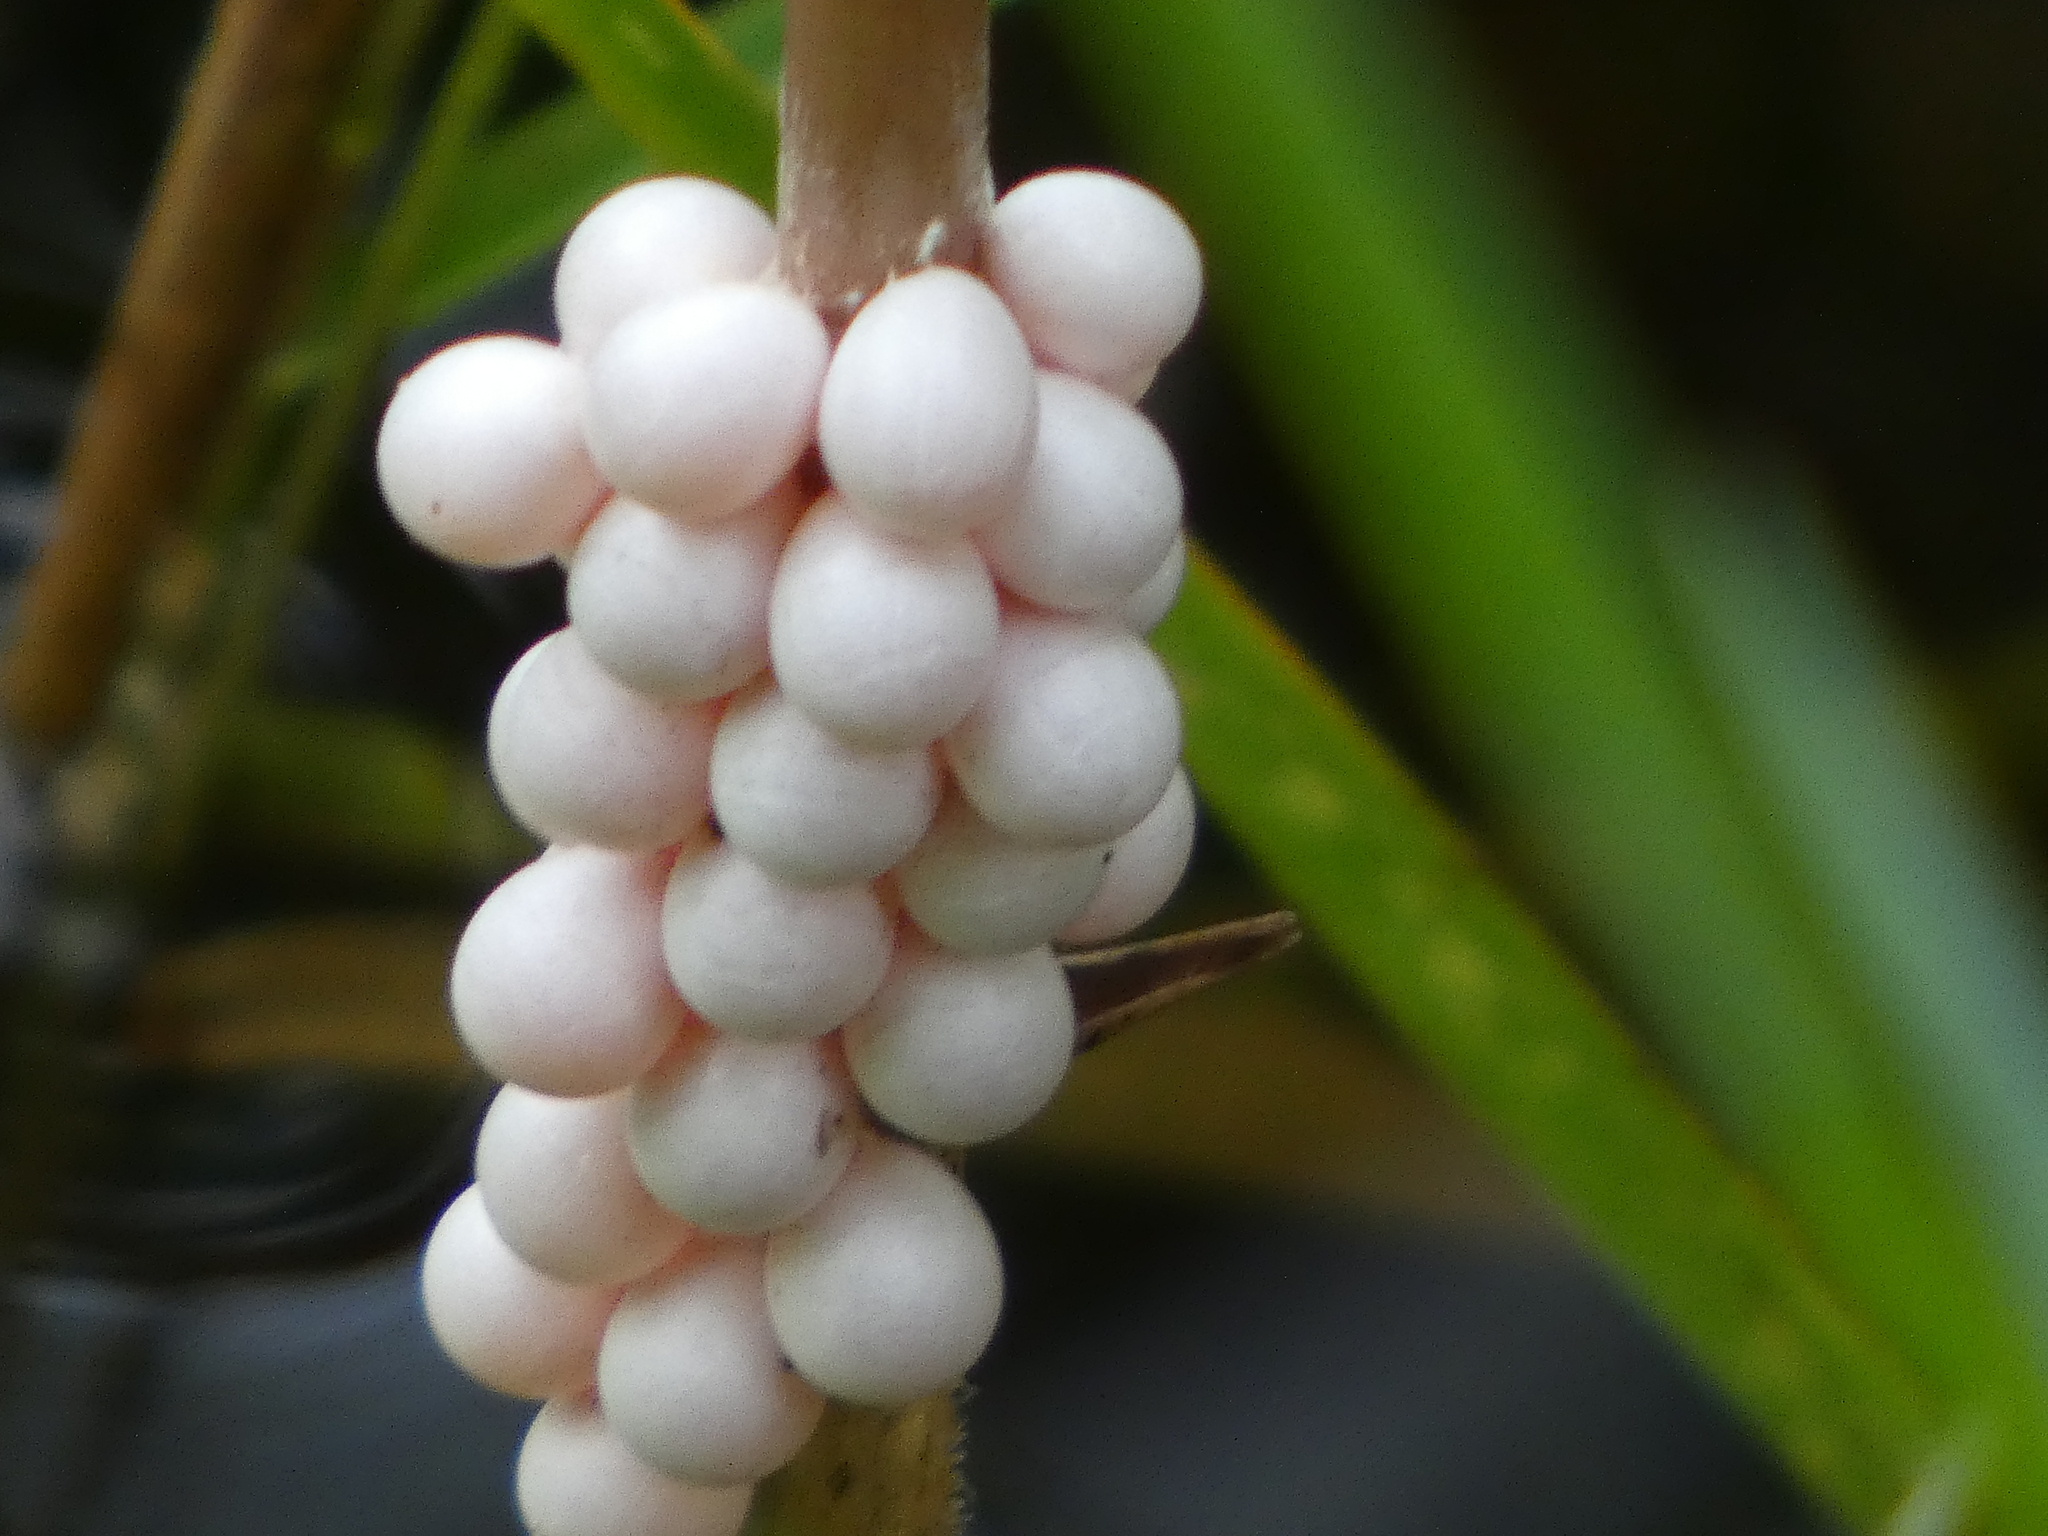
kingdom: Animalia
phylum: Mollusca
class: Gastropoda
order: Architaenioglossa
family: Ampullariidae
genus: Pomacea
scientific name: Pomacea paludosa
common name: Florida applesnail
